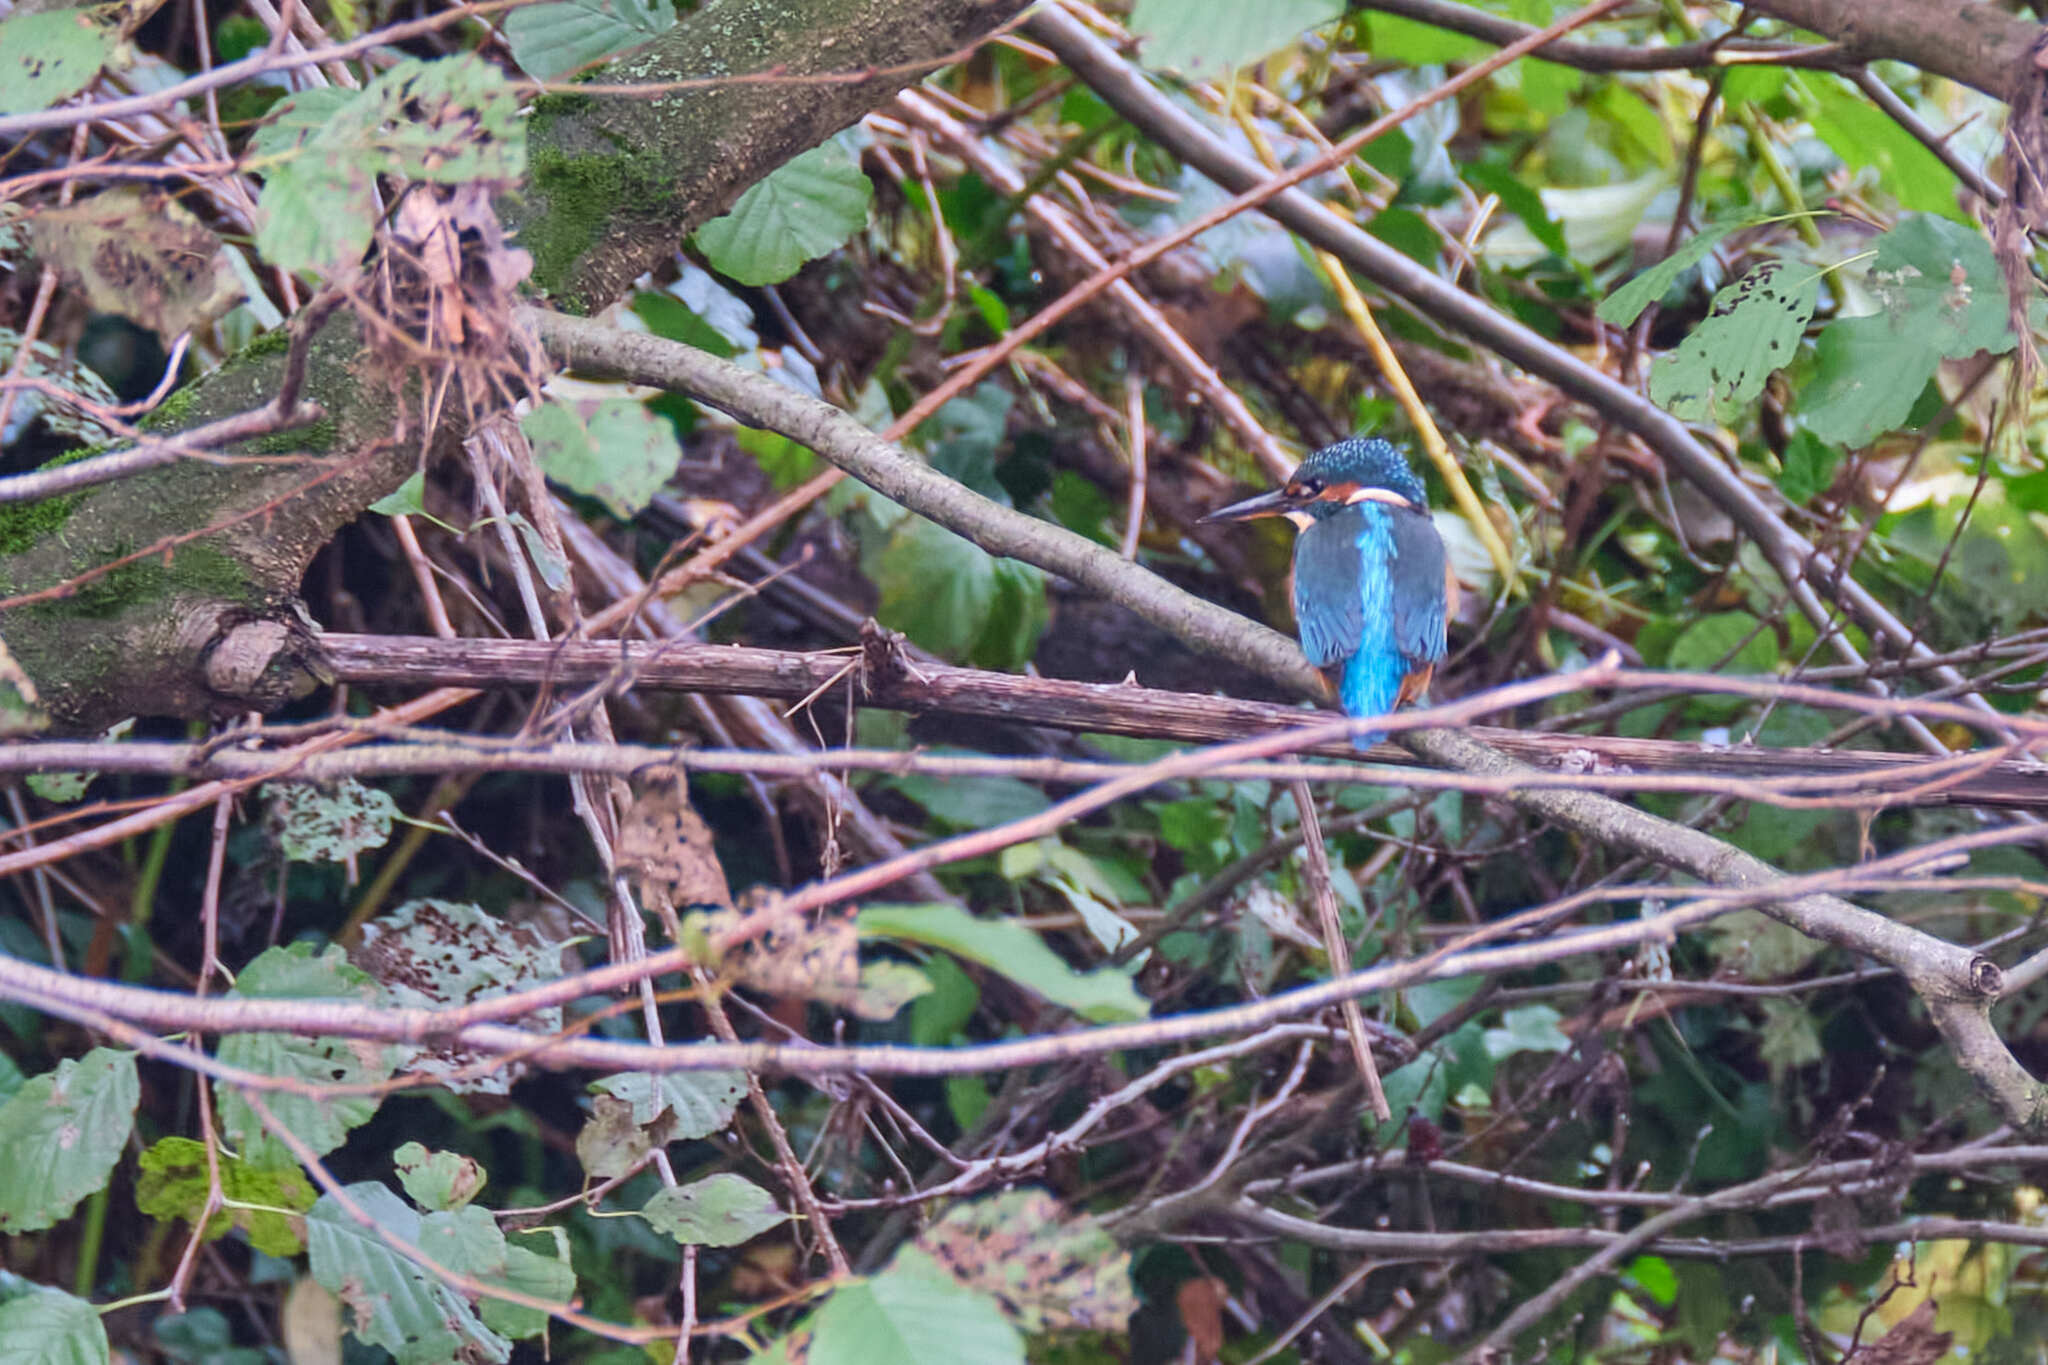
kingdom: Animalia
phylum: Chordata
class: Aves
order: Coraciiformes
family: Alcedinidae
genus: Alcedo
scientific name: Alcedo atthis
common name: Common kingfisher
